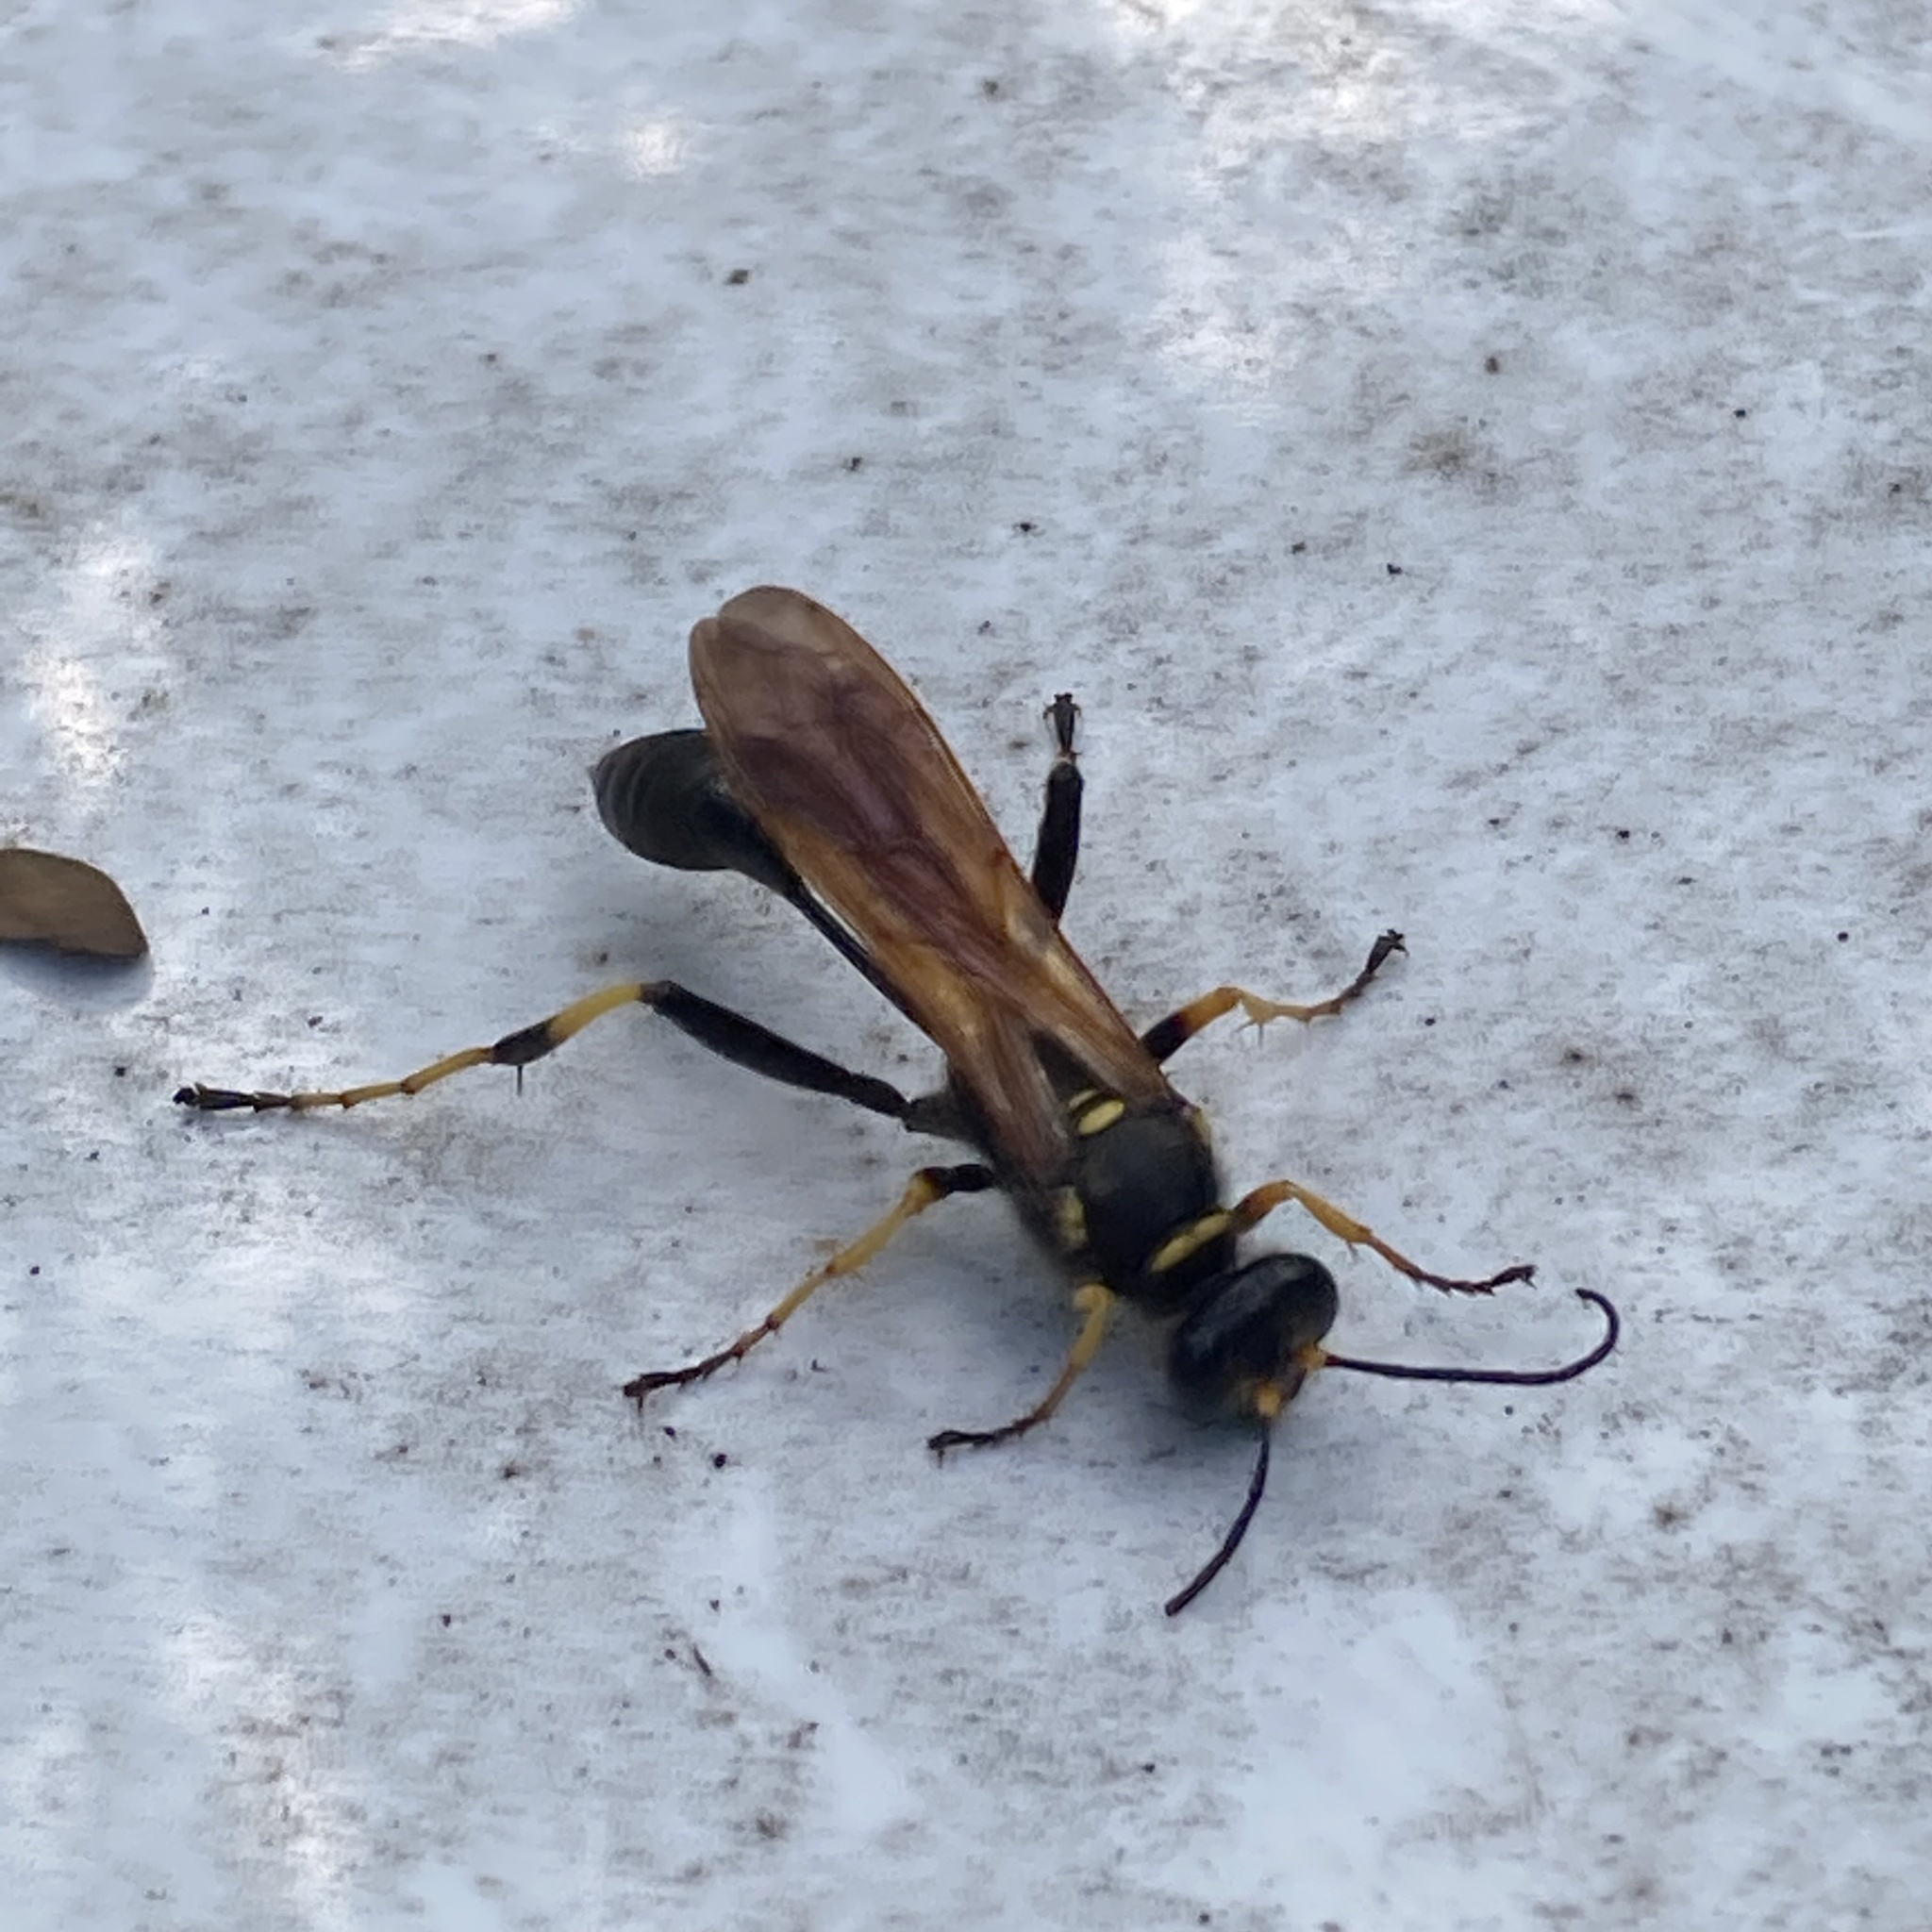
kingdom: Animalia
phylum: Arthropoda
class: Insecta
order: Hymenoptera
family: Sphecidae
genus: Sceliphron
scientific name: Sceliphron caementarium
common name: Mud dauber
